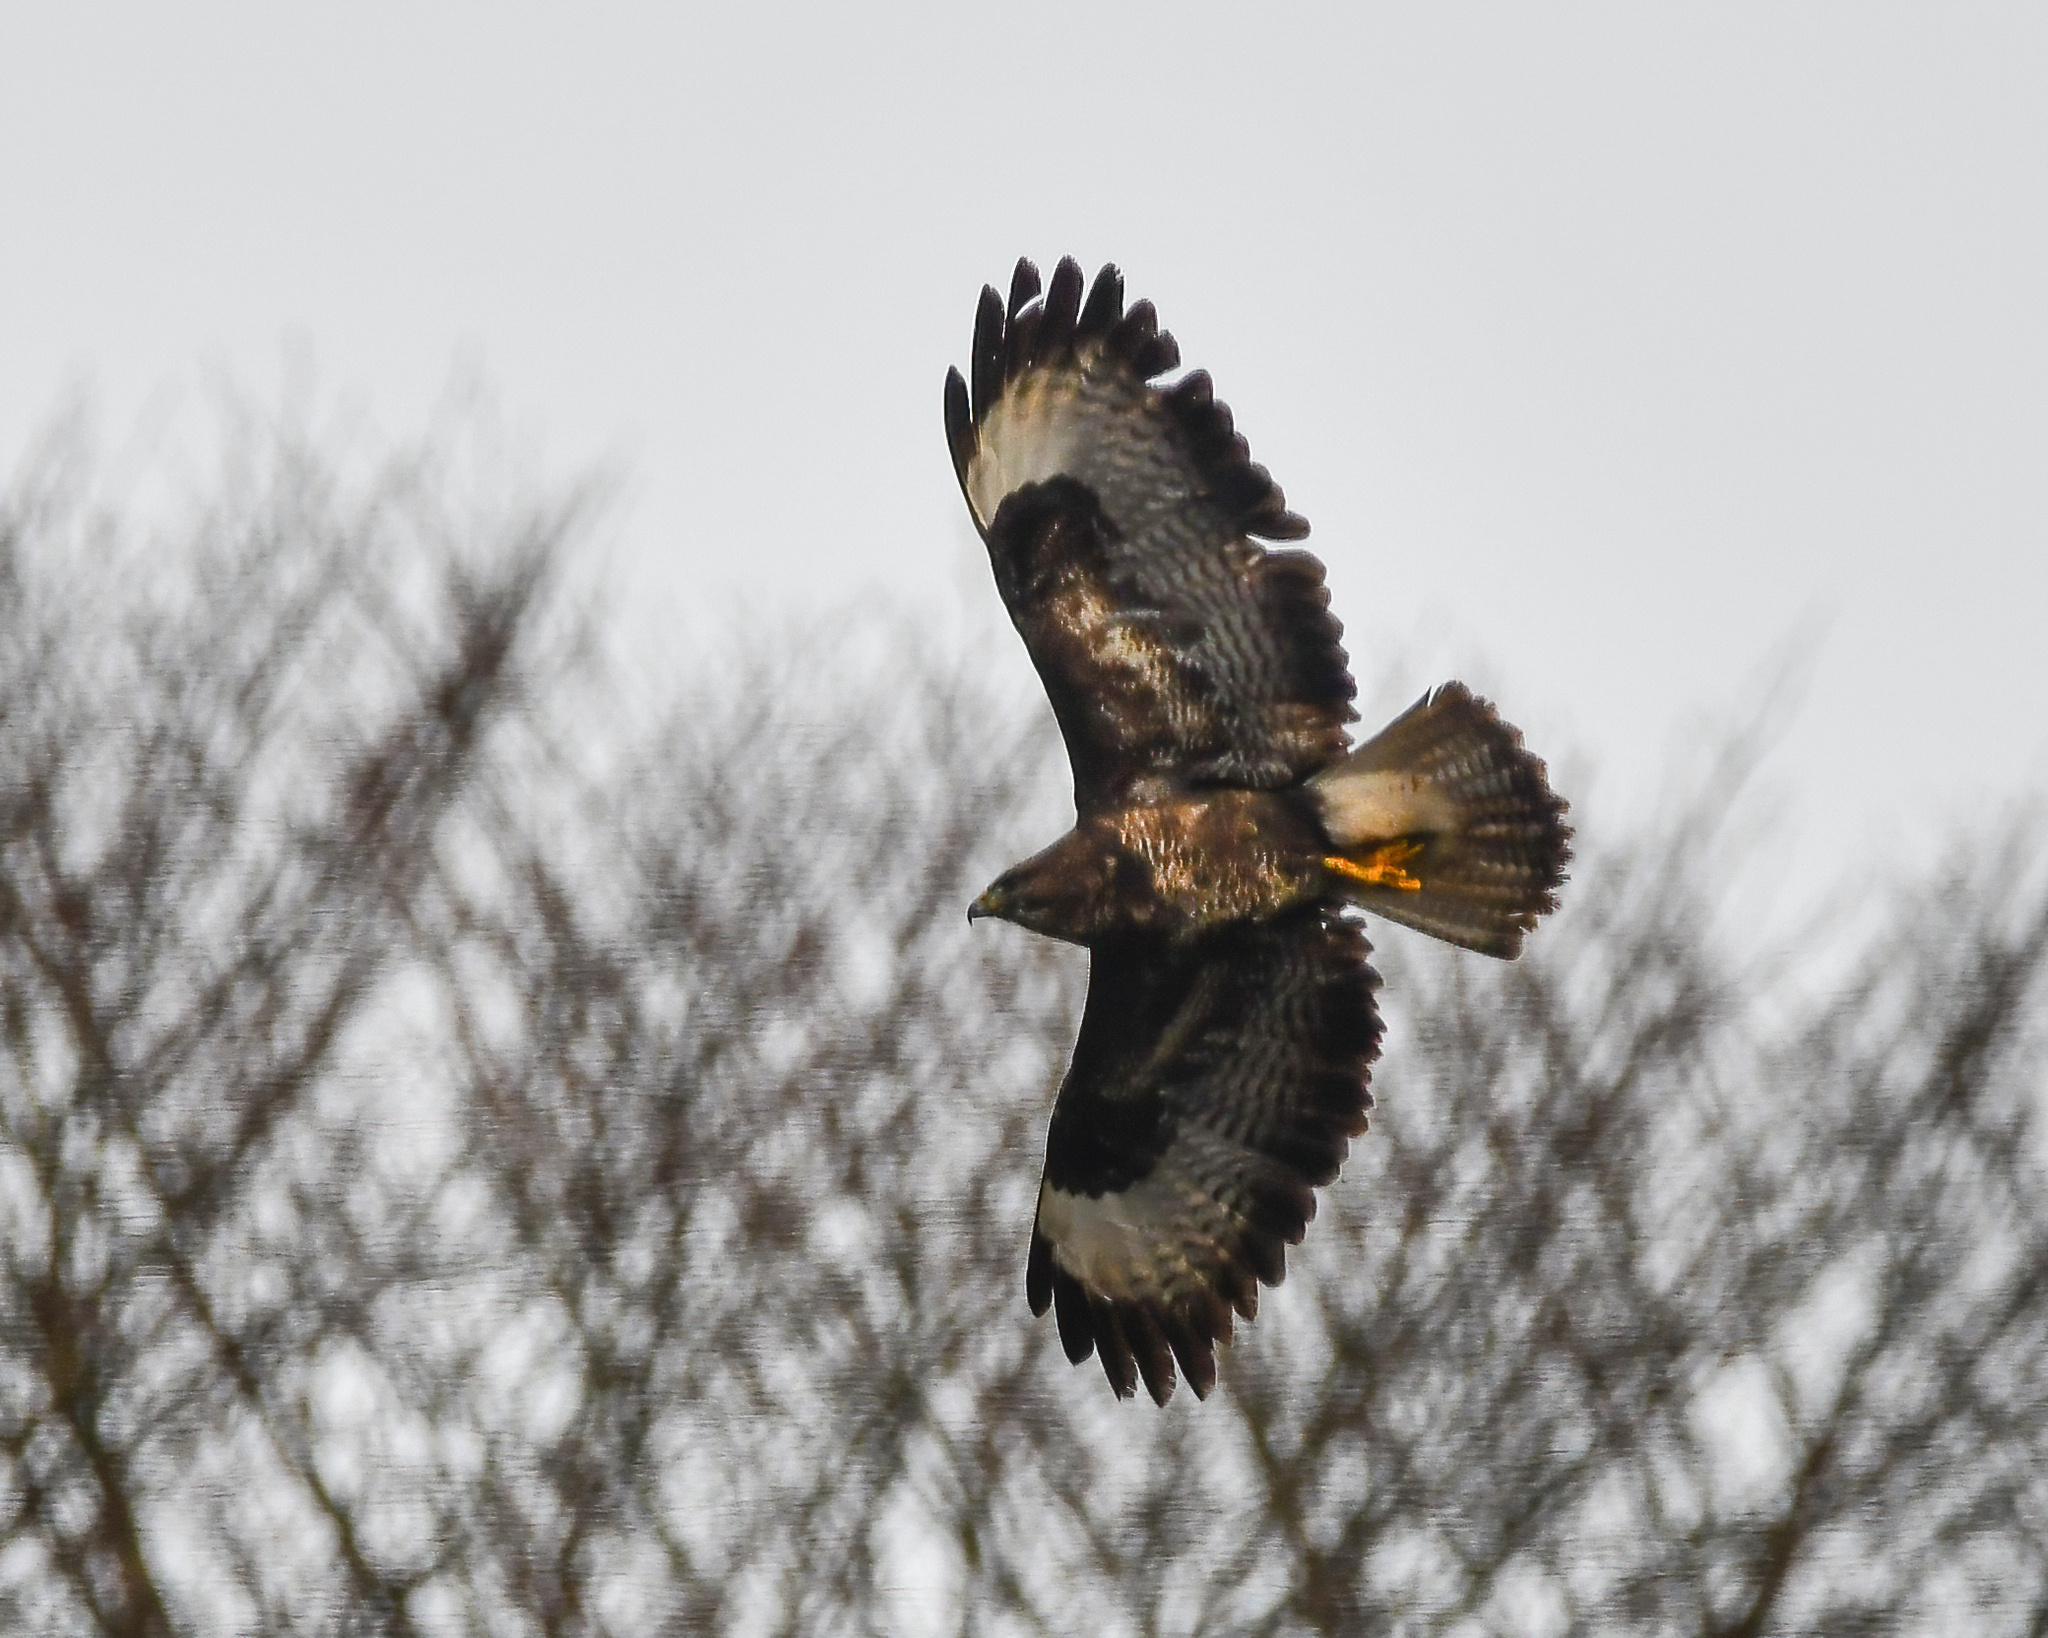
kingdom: Animalia
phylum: Chordata
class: Aves
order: Accipitriformes
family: Accipitridae
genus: Buteo
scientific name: Buteo buteo
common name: Common buzzard
